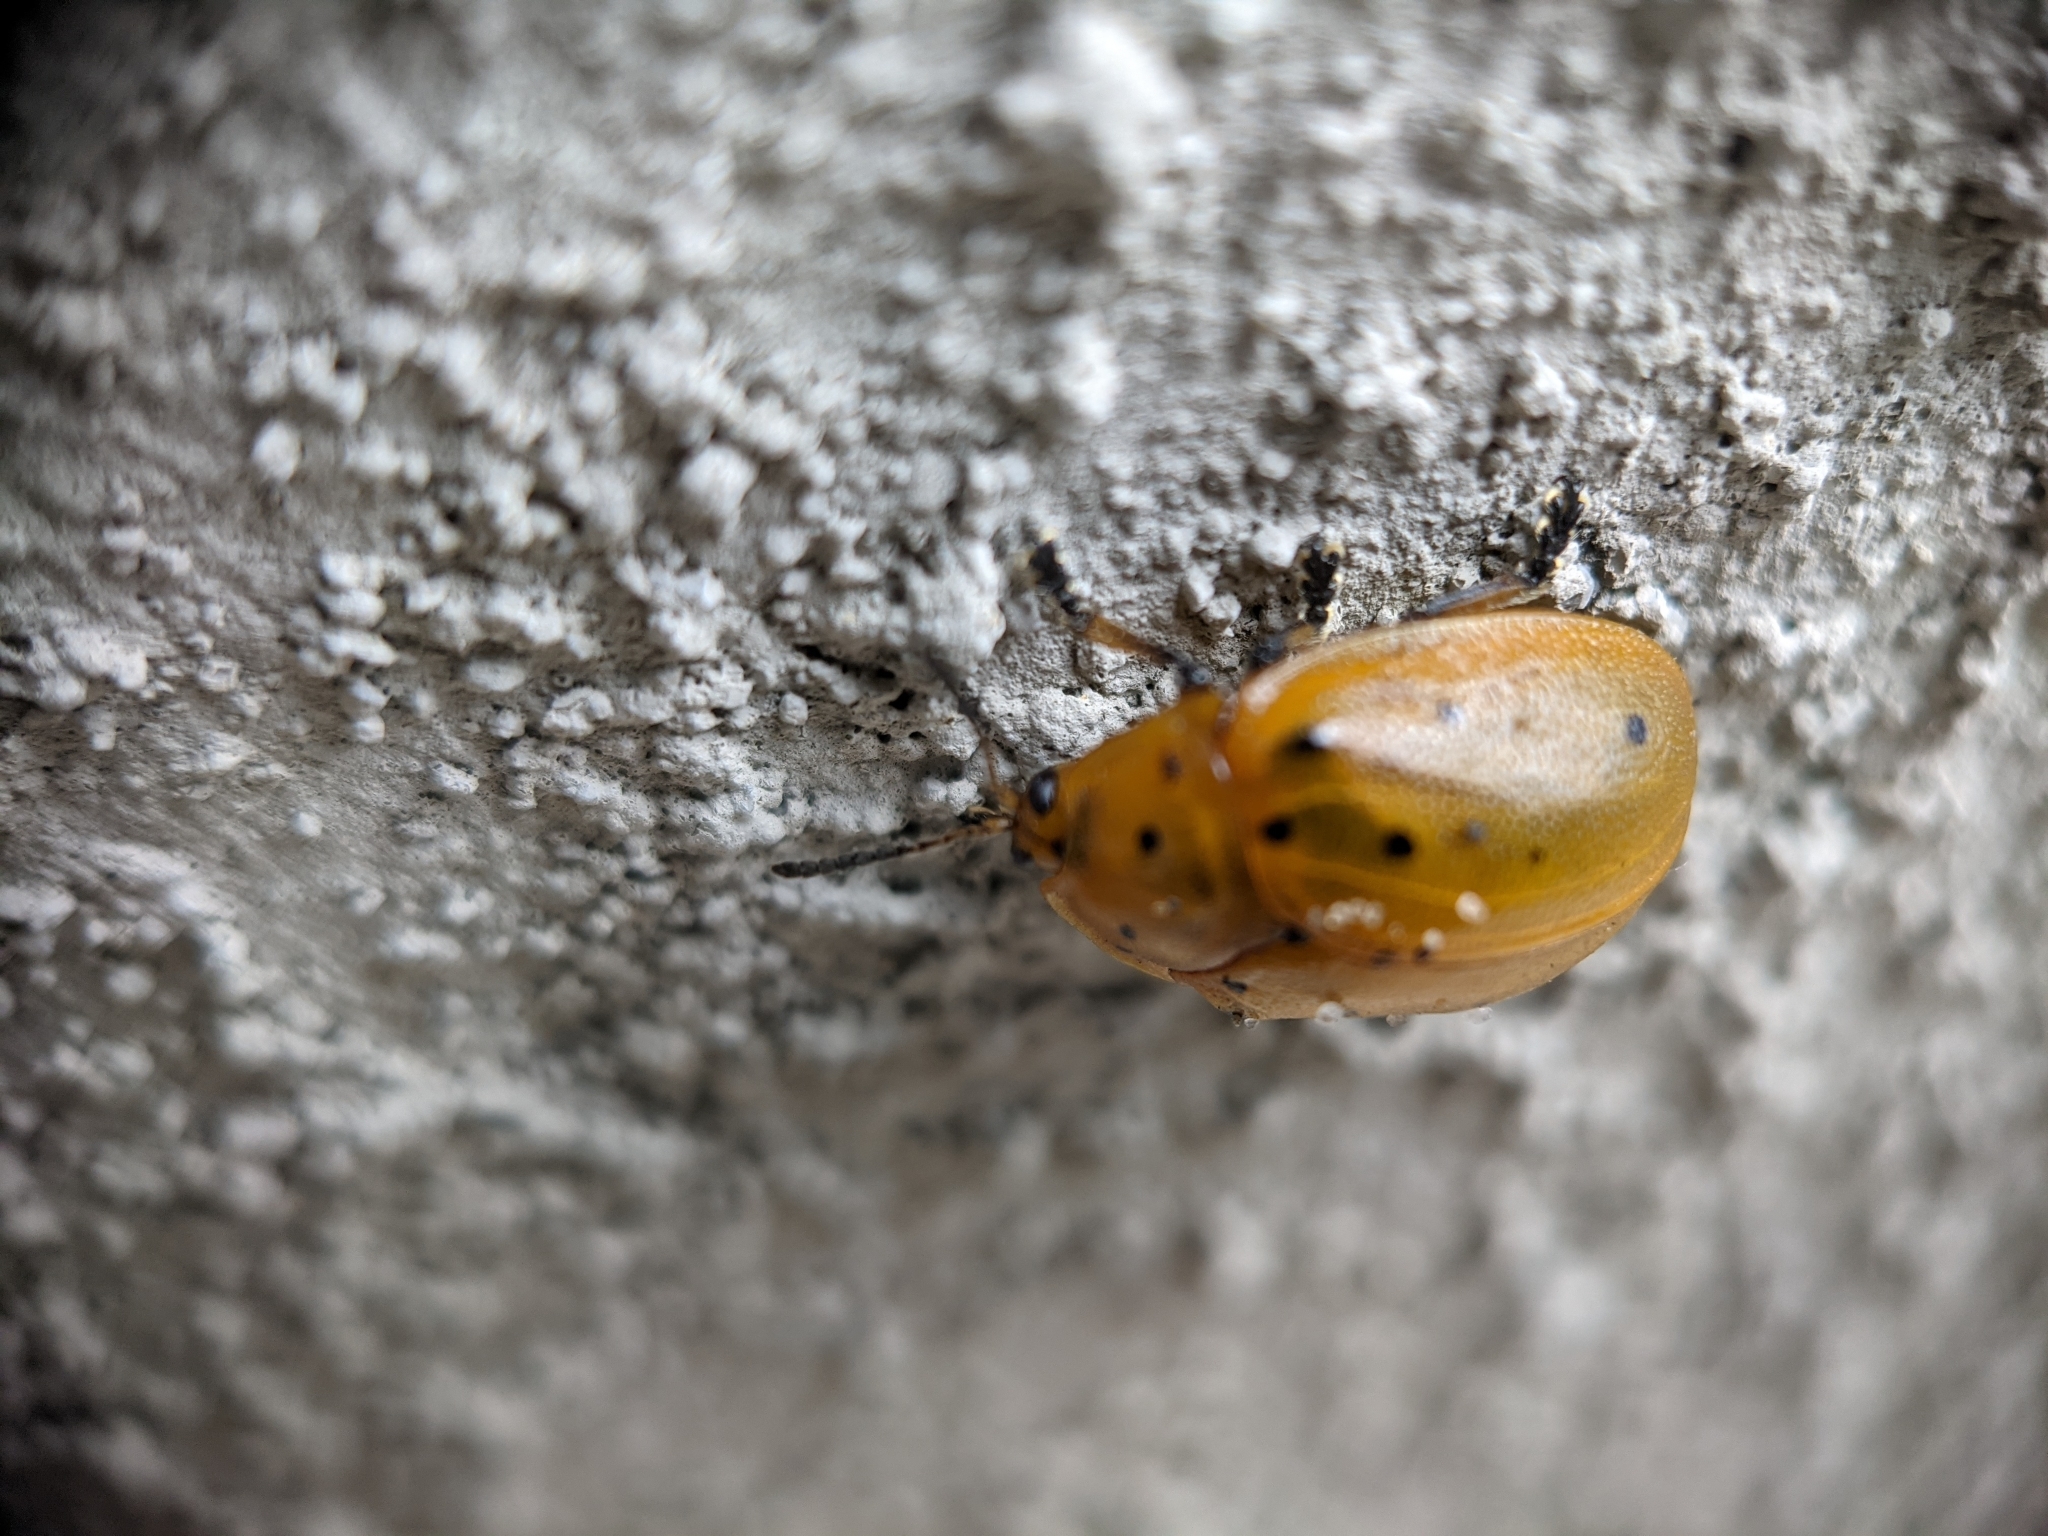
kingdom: Animalia
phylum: Arthropoda
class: Insecta
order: Coleoptera
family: Chrysomelidae
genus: Chelymorpha
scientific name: Chelymorpha cassidea
